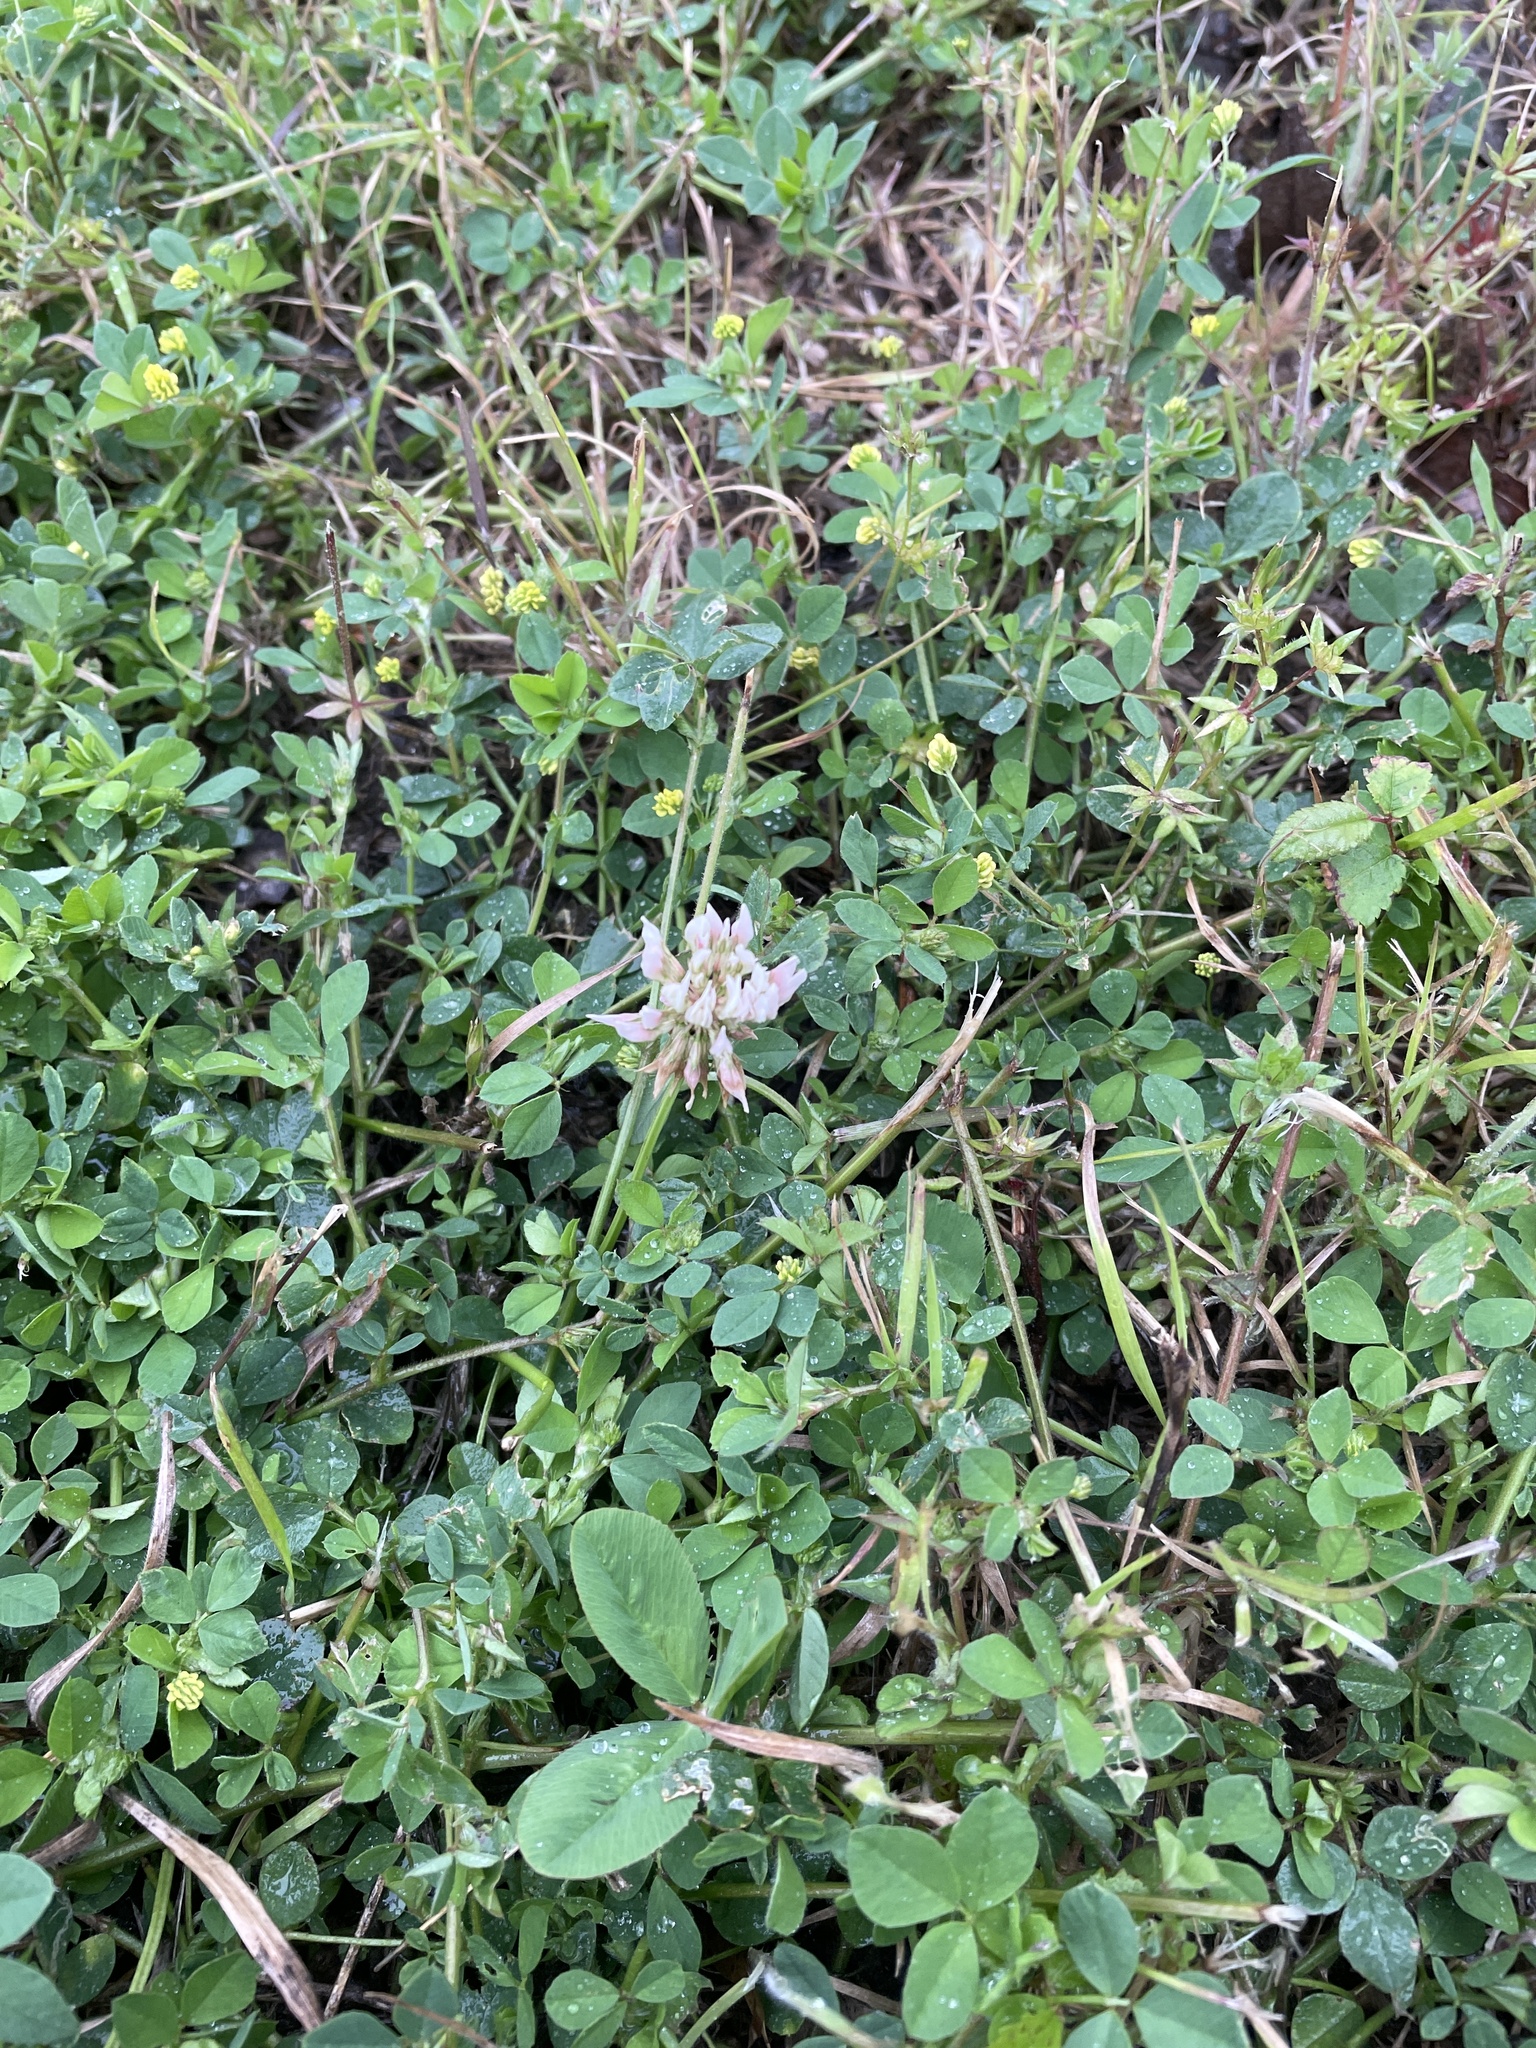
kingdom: Plantae
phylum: Tracheophyta
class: Magnoliopsida
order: Fabales
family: Fabaceae
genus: Trifolium
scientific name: Trifolium repens
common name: White clover
